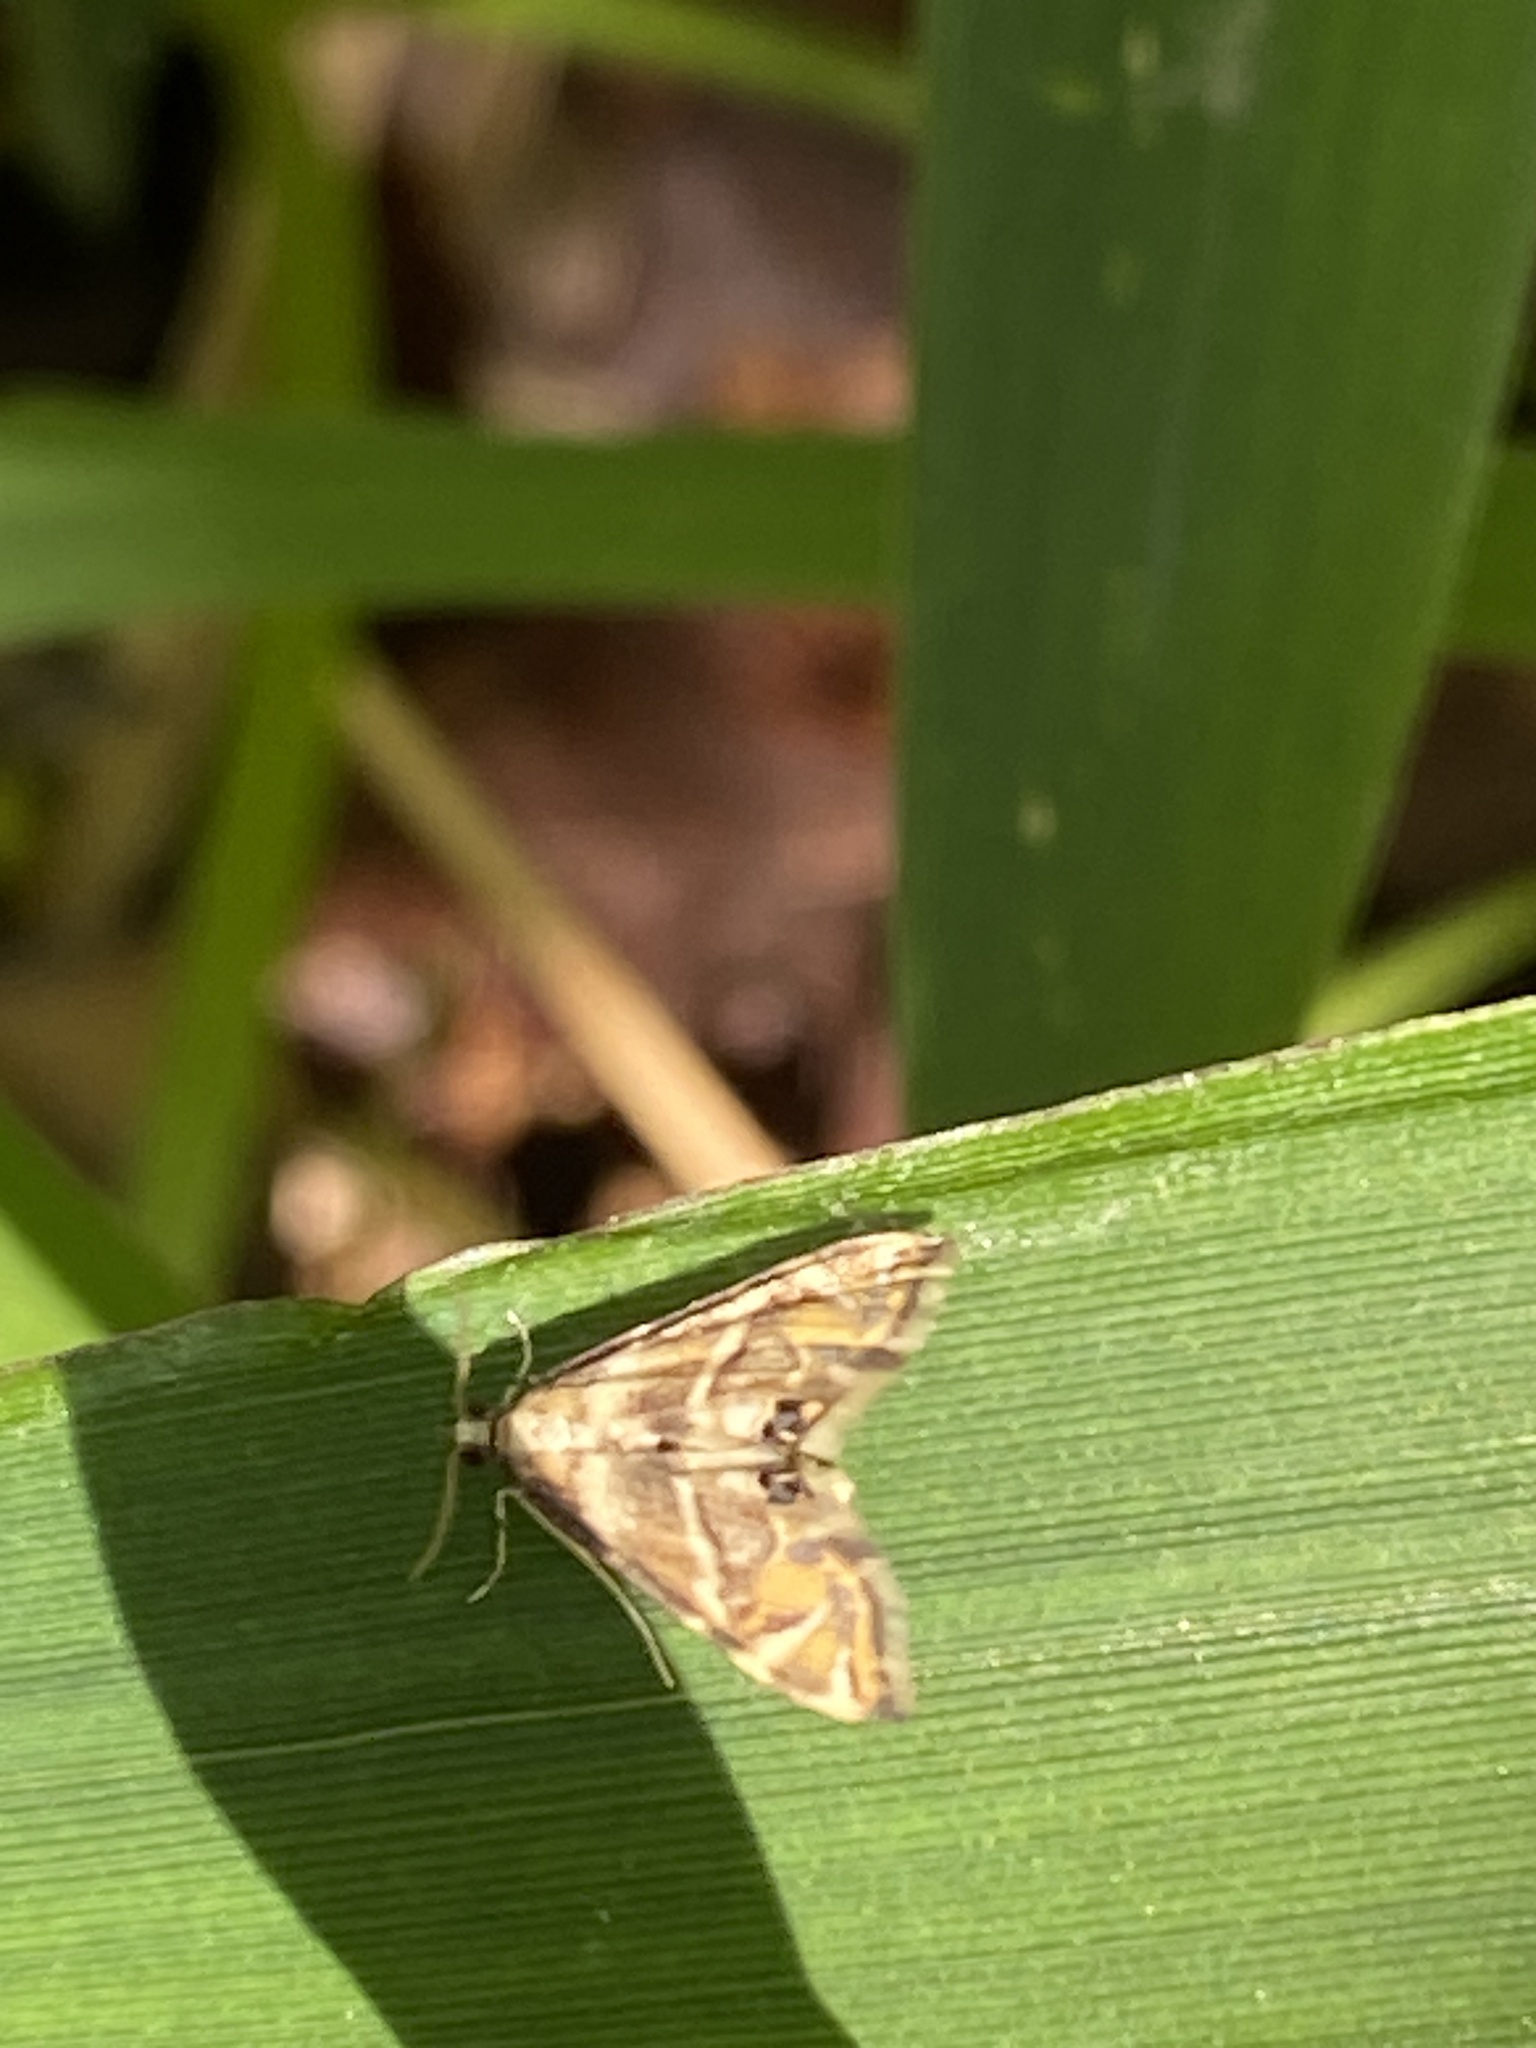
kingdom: Animalia
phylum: Arthropoda
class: Insecta
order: Lepidoptera
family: Crambidae
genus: Petrophila
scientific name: Petrophila canadensis
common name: Canadian petrophila
